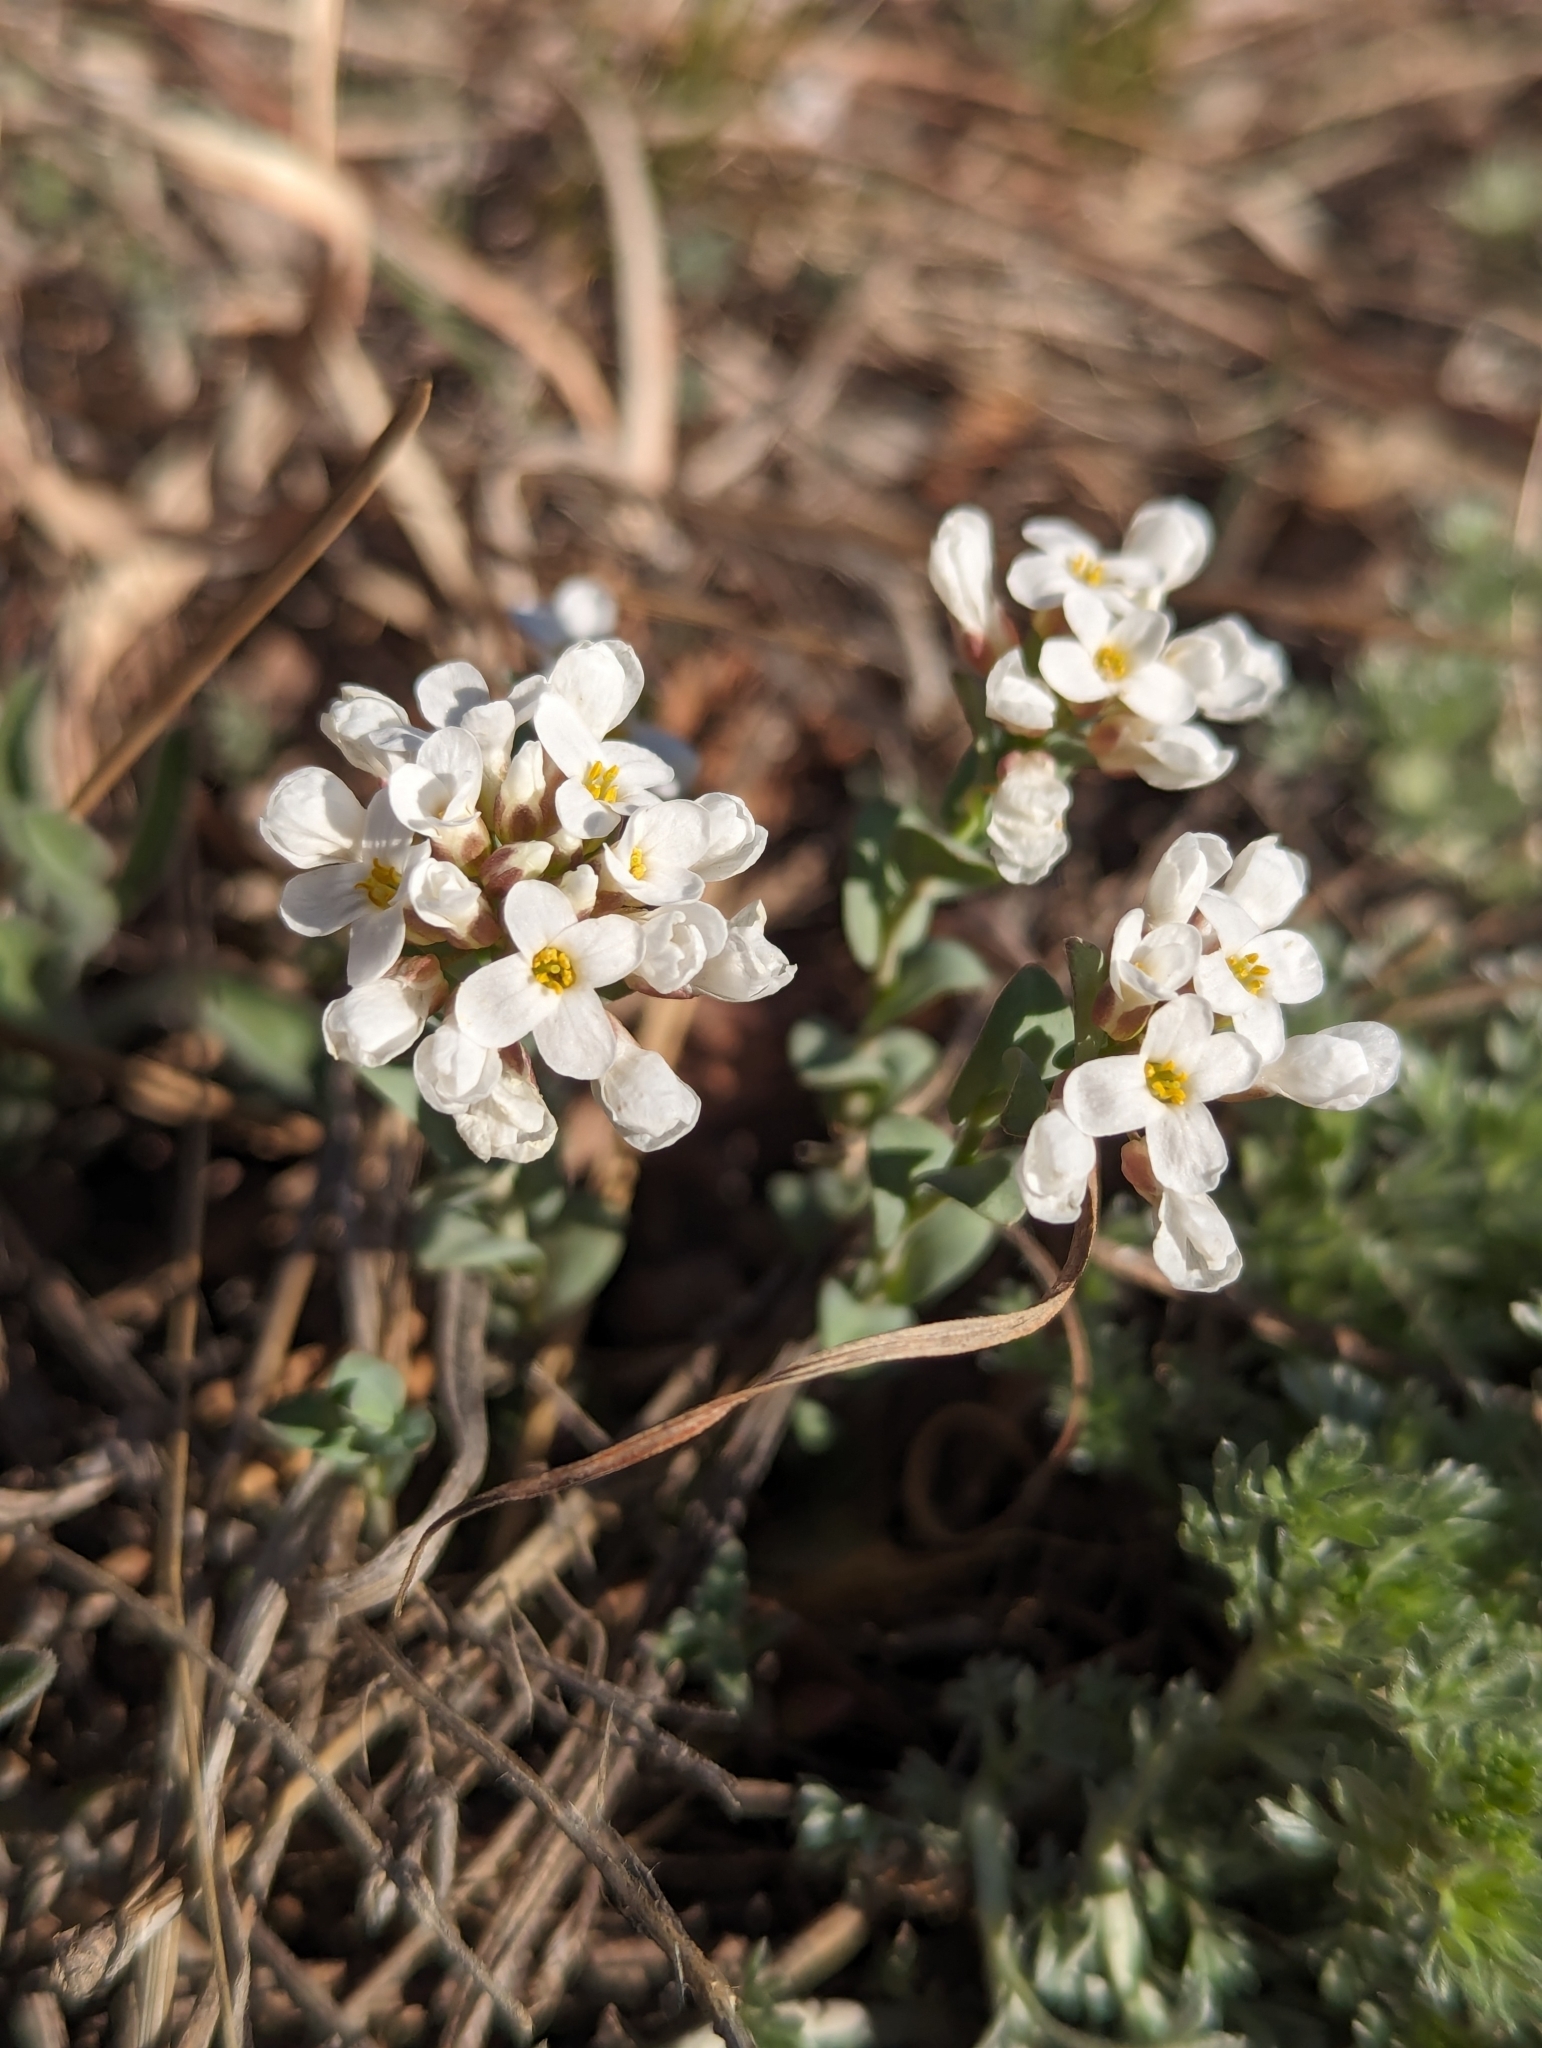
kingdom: Plantae
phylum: Tracheophyta
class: Magnoliopsida
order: Brassicales
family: Brassicaceae
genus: Noccaea
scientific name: Noccaea fendleri
